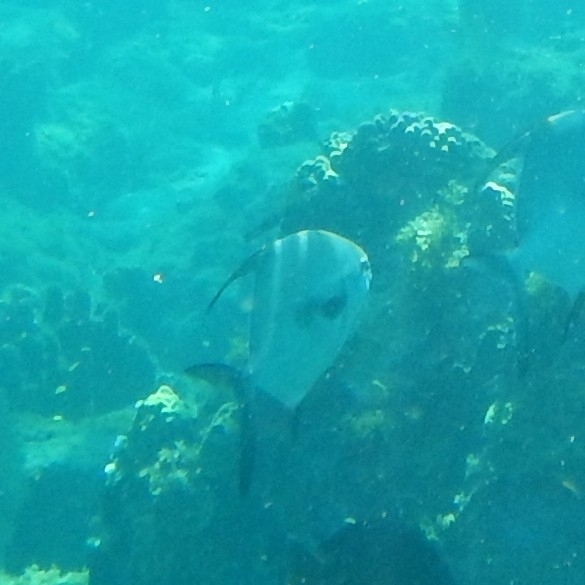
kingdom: Animalia
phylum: Chordata
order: Perciformes
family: Carangidae
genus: Trachinotus
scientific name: Trachinotus falcatus
